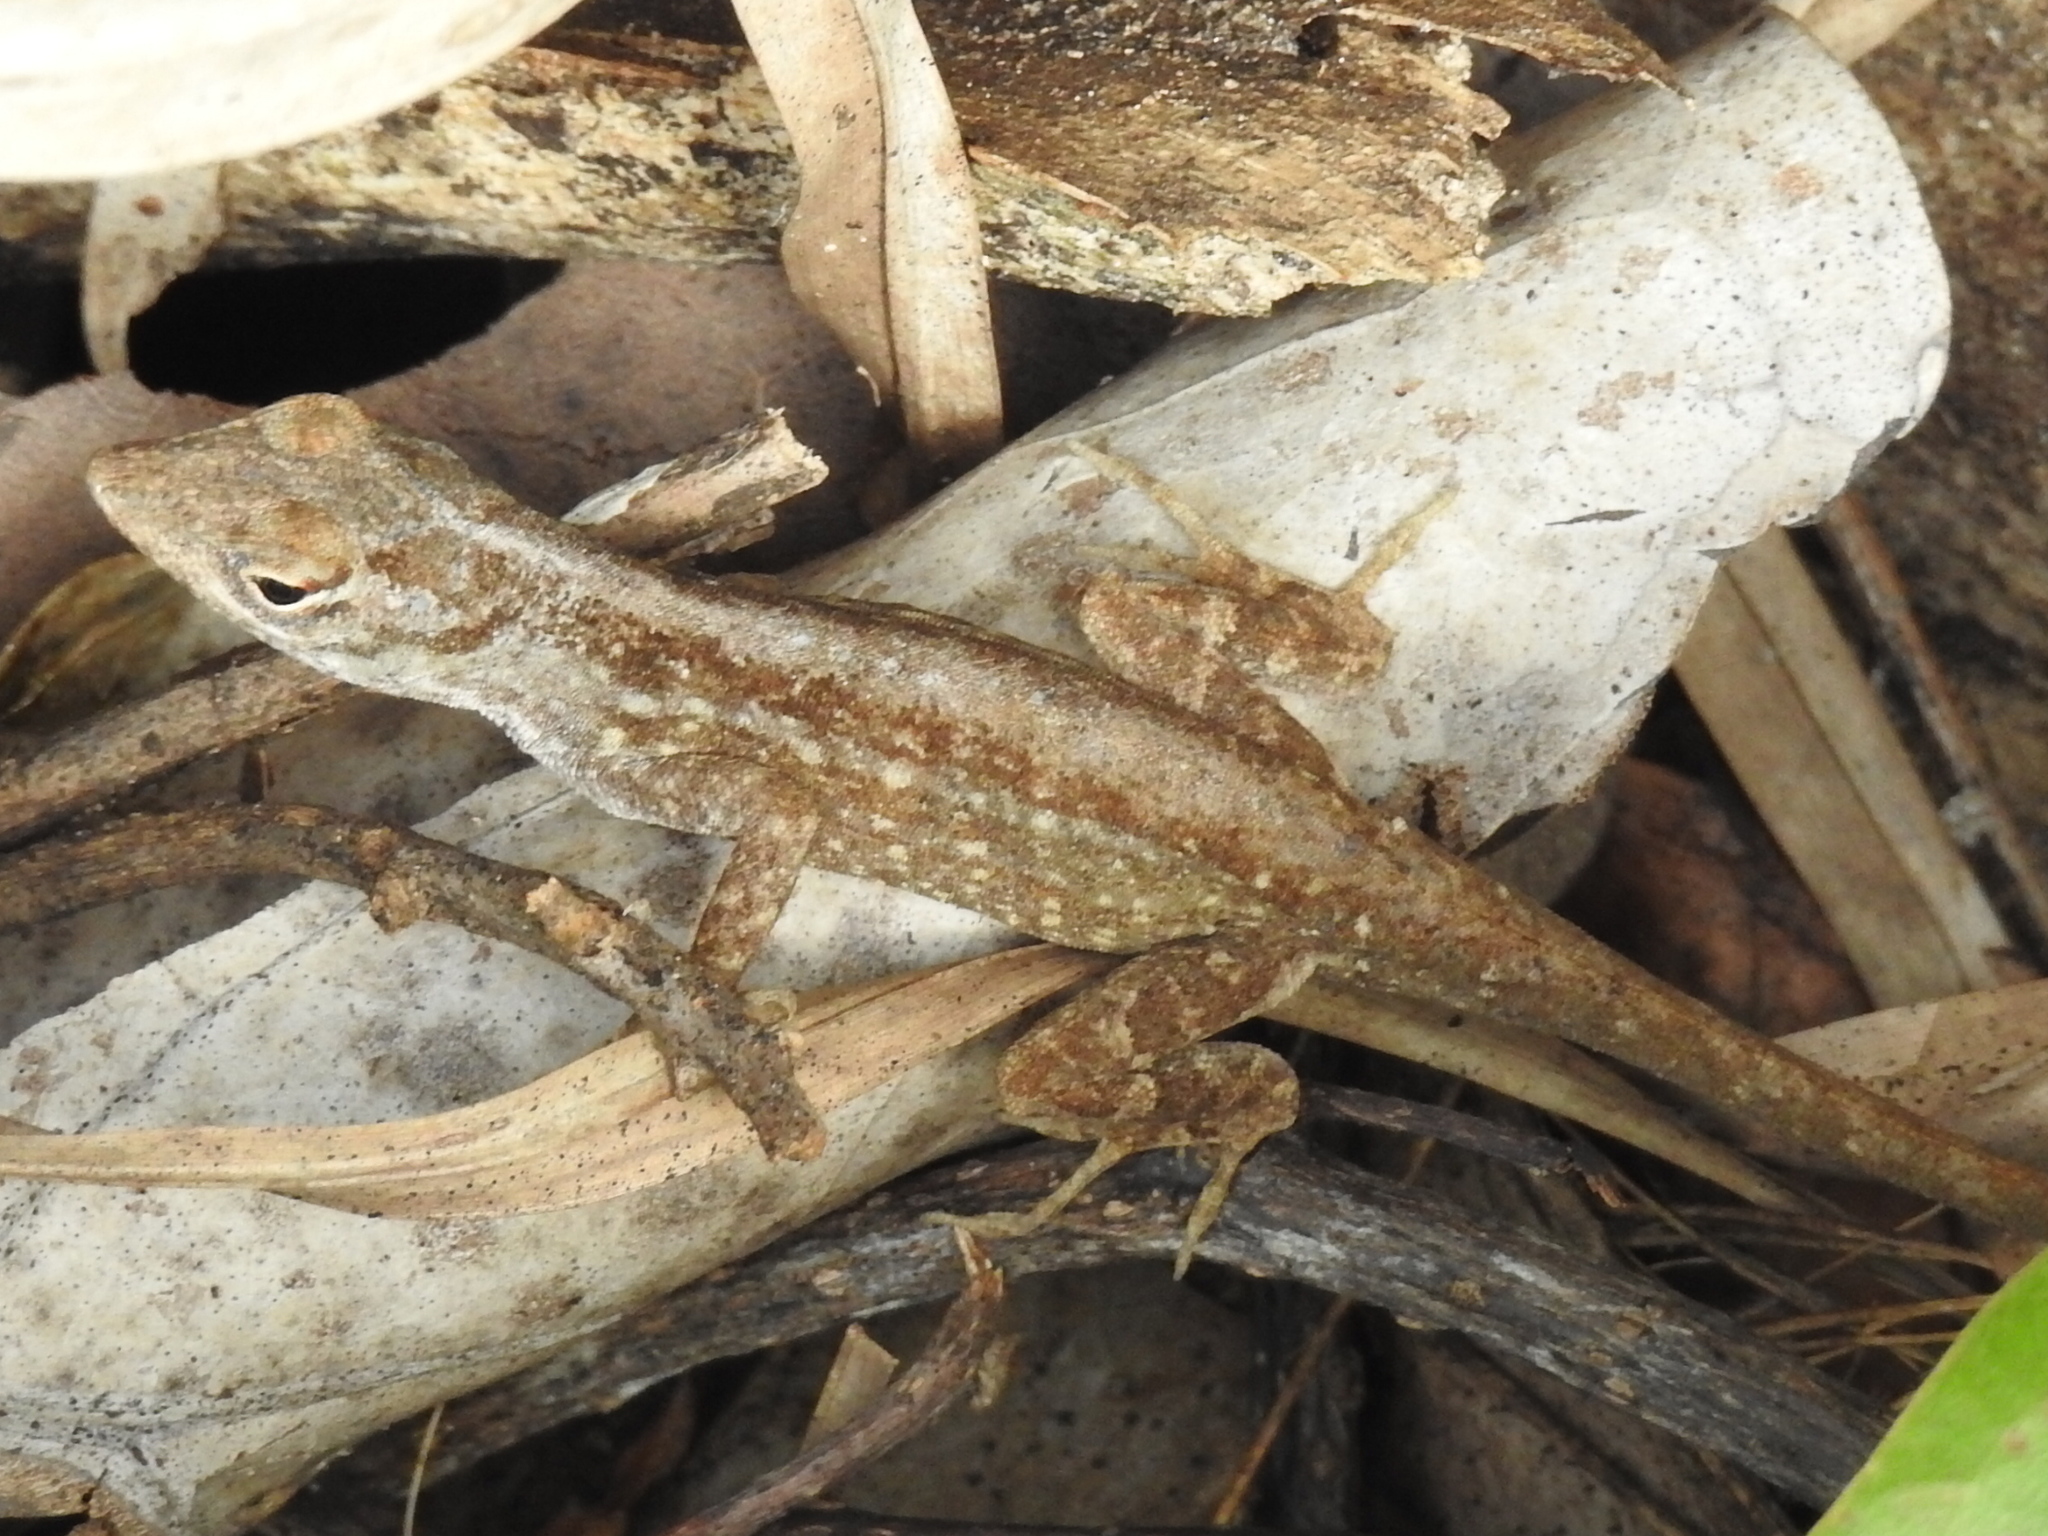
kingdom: Animalia
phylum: Chordata
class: Squamata
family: Dactyloidae
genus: Anolis
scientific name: Anolis sagrei
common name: Brown anole
